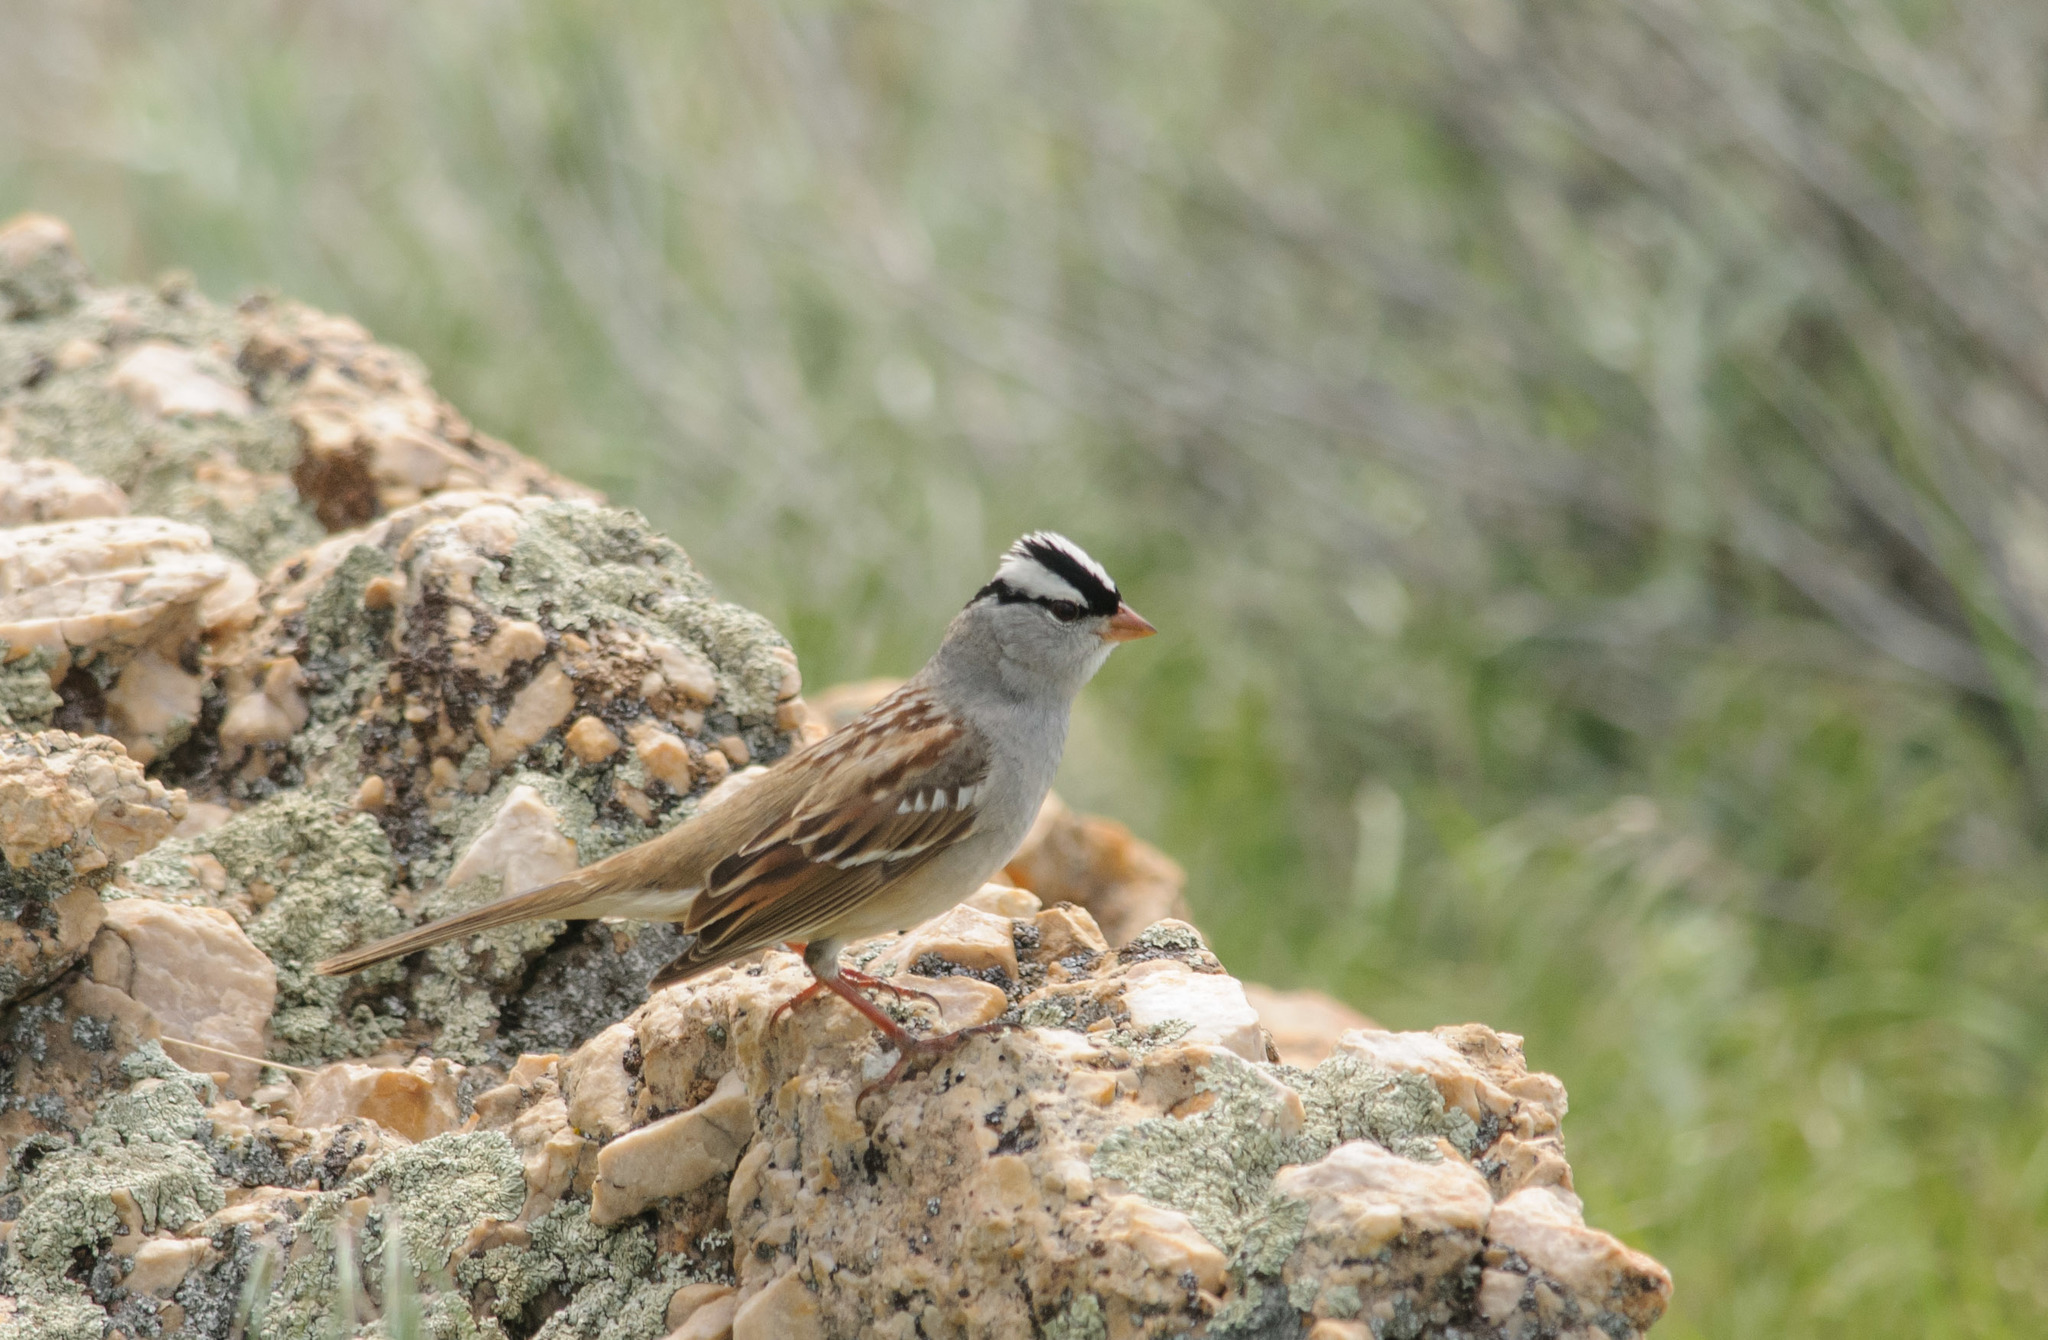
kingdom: Animalia
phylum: Chordata
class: Aves
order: Passeriformes
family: Passerellidae
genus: Zonotrichia
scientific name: Zonotrichia leucophrys
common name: White-crowned sparrow
